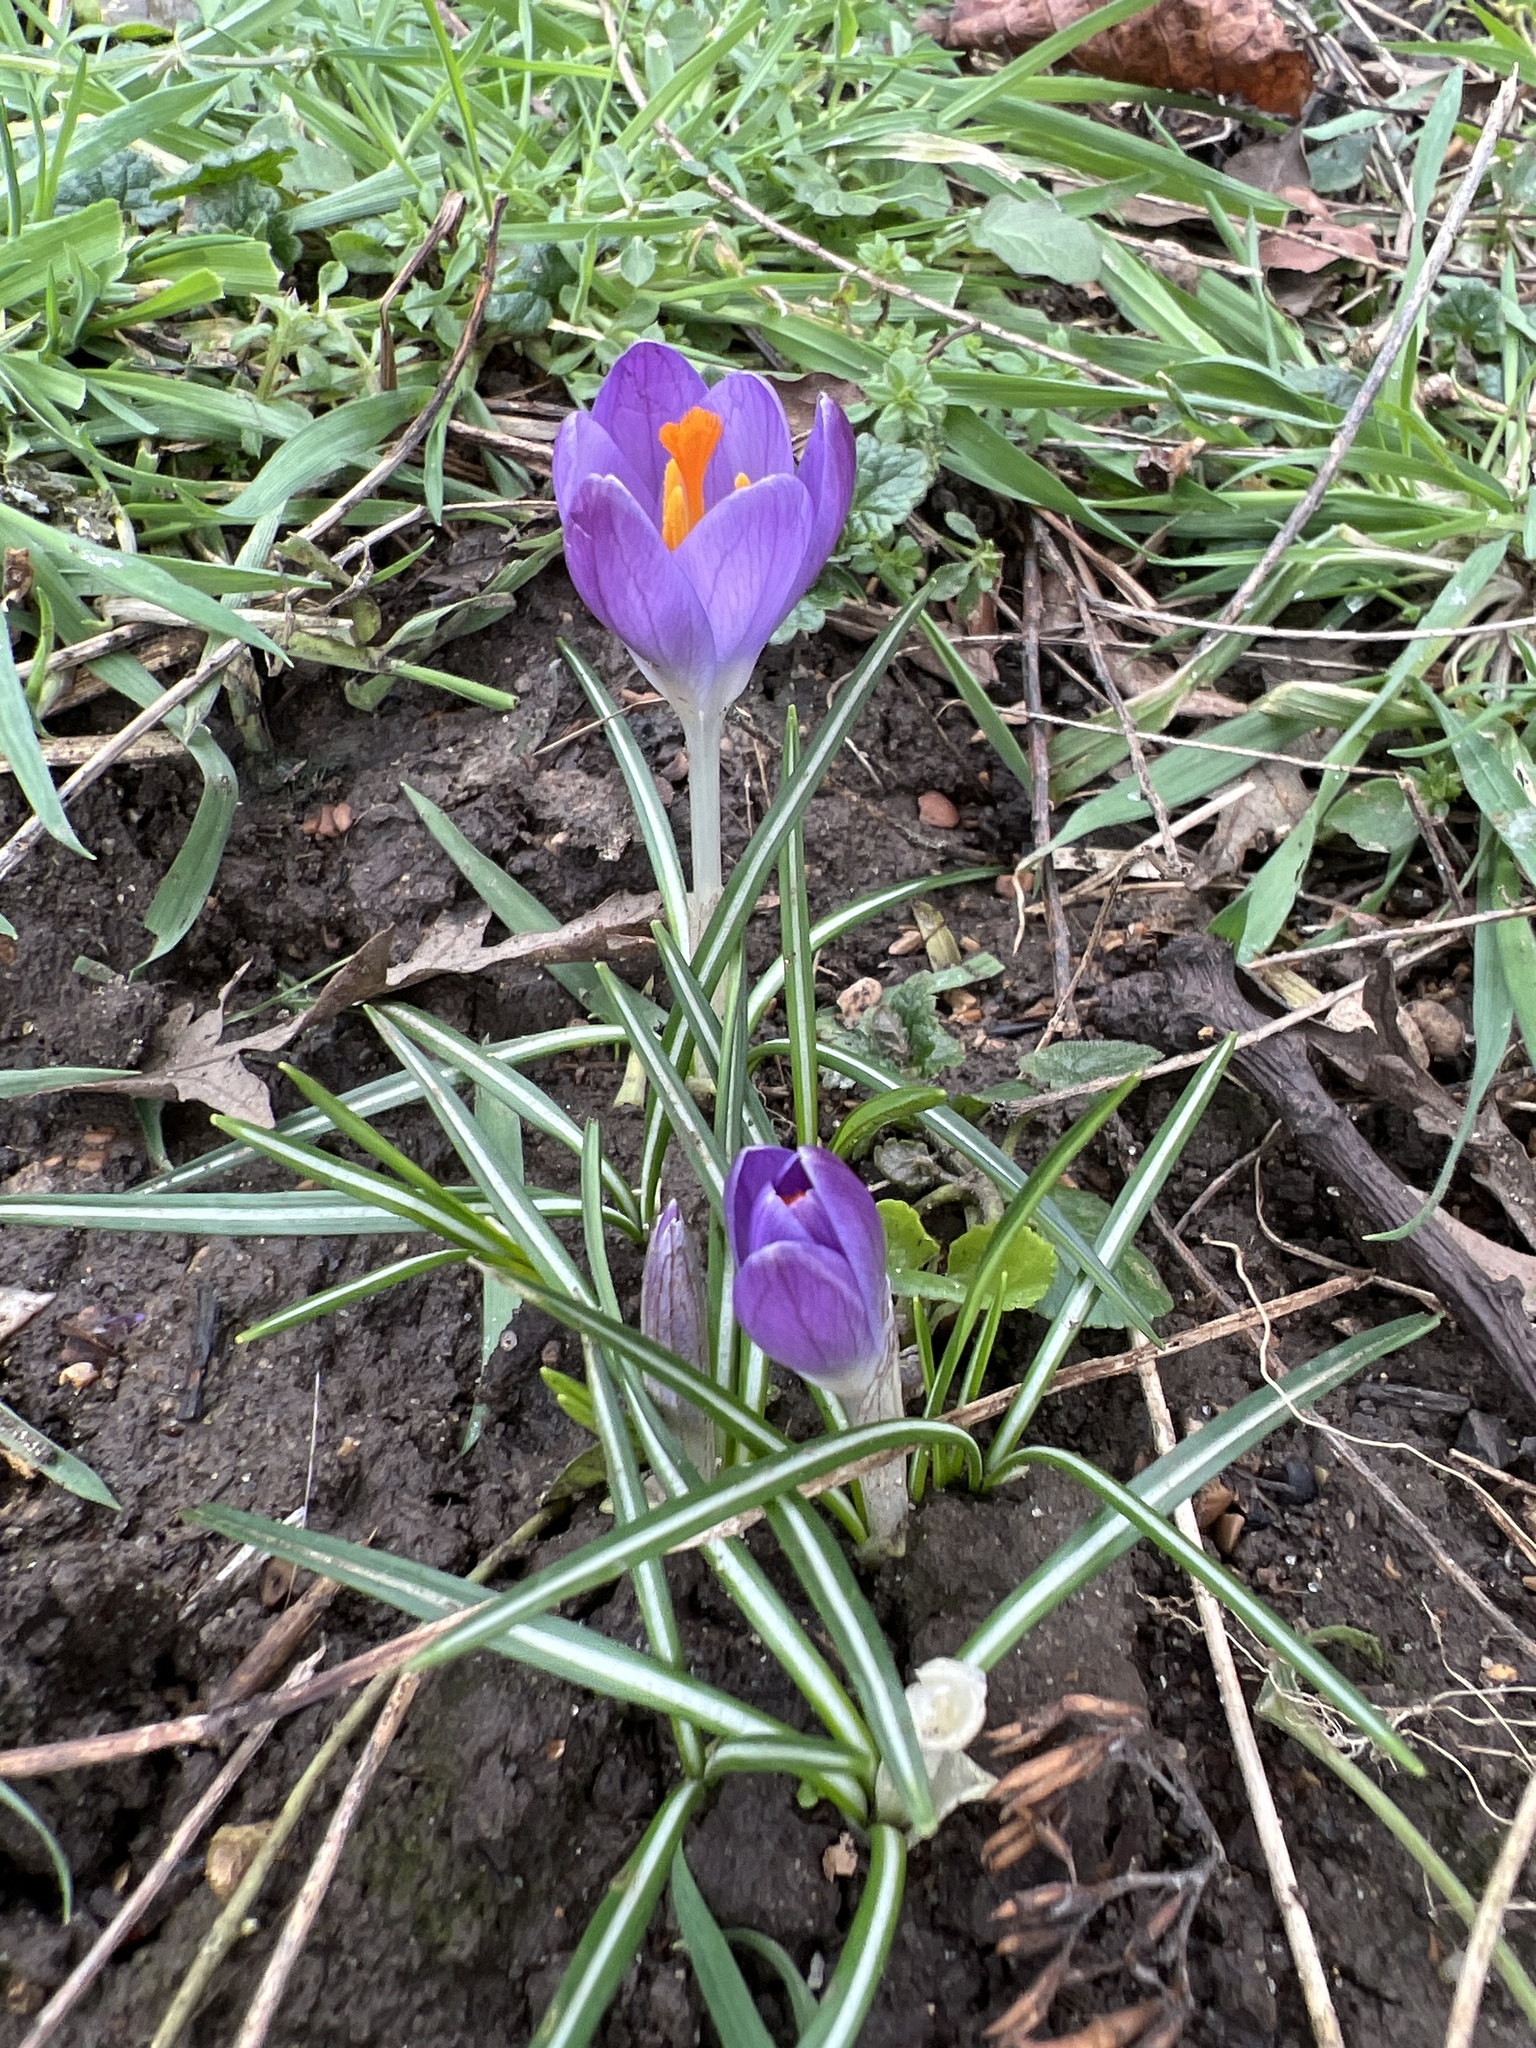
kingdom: Plantae
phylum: Tracheophyta
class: Liliopsida
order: Asparagales
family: Iridaceae
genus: Crocus
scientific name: Crocus tommasinianus
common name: Early crocus
